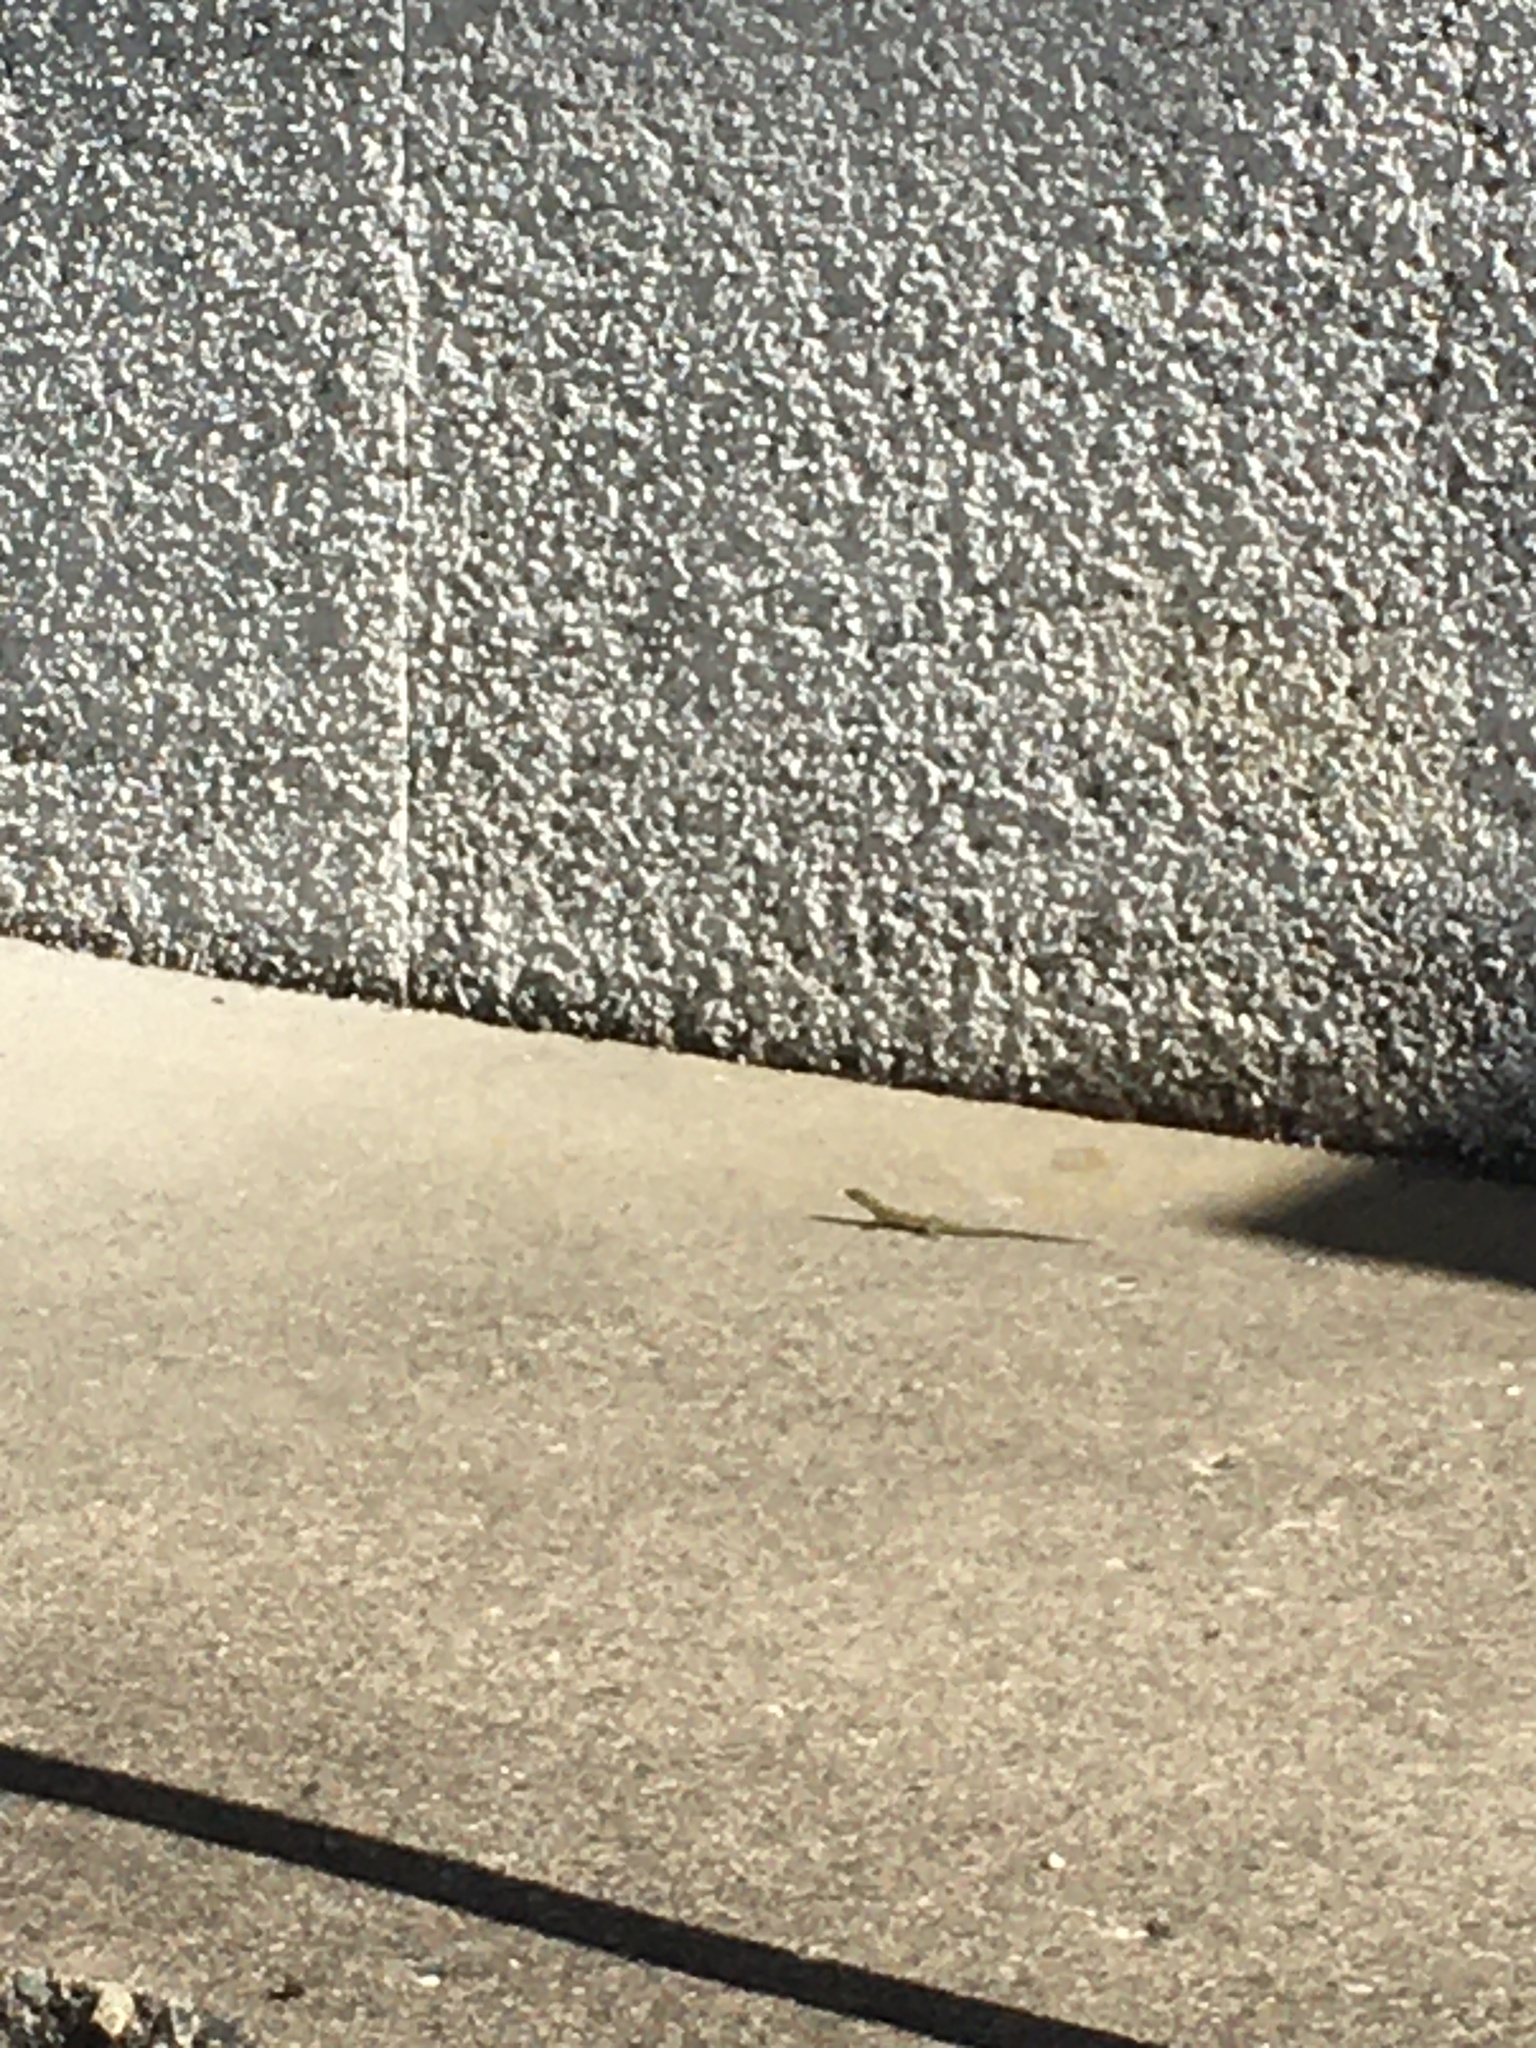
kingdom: Animalia
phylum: Chordata
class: Squamata
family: Lacertidae
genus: Podarcis
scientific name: Podarcis muralis
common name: Common wall lizard
